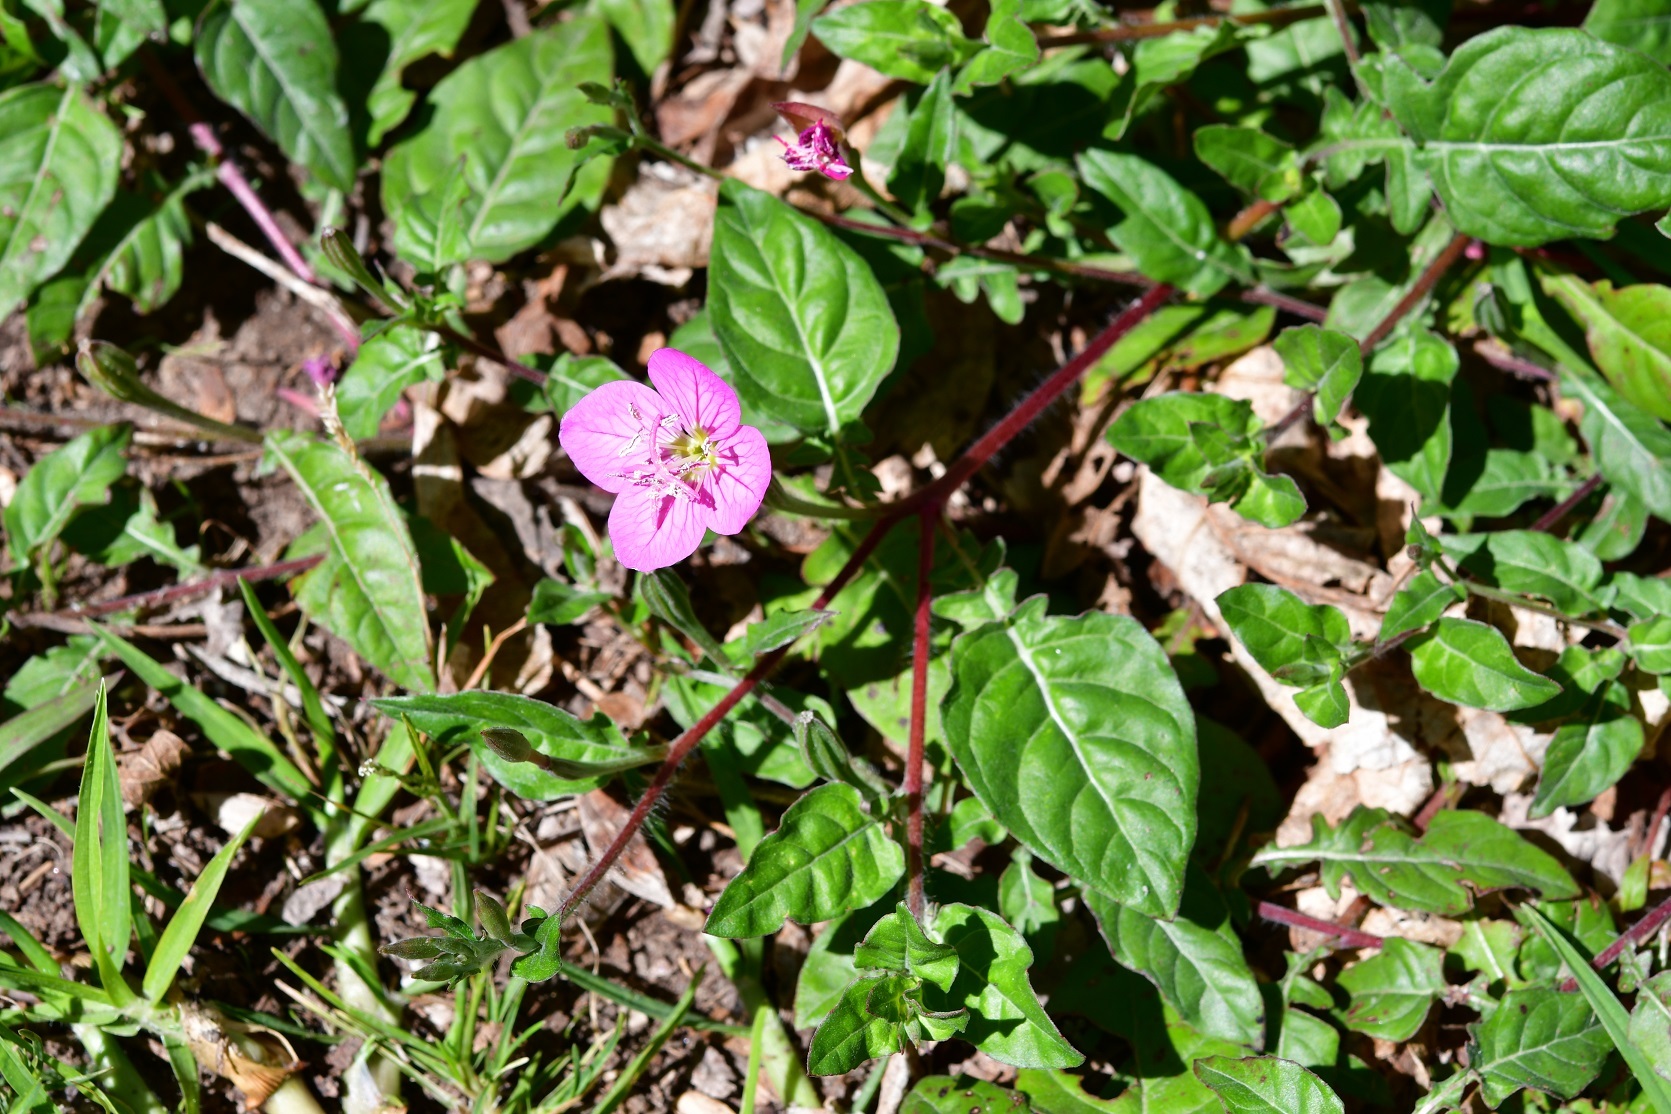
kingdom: Plantae
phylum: Tracheophyta
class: Magnoliopsida
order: Myrtales
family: Onagraceae
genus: Oenothera
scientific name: Oenothera rosea
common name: Rosy evening-primrose
